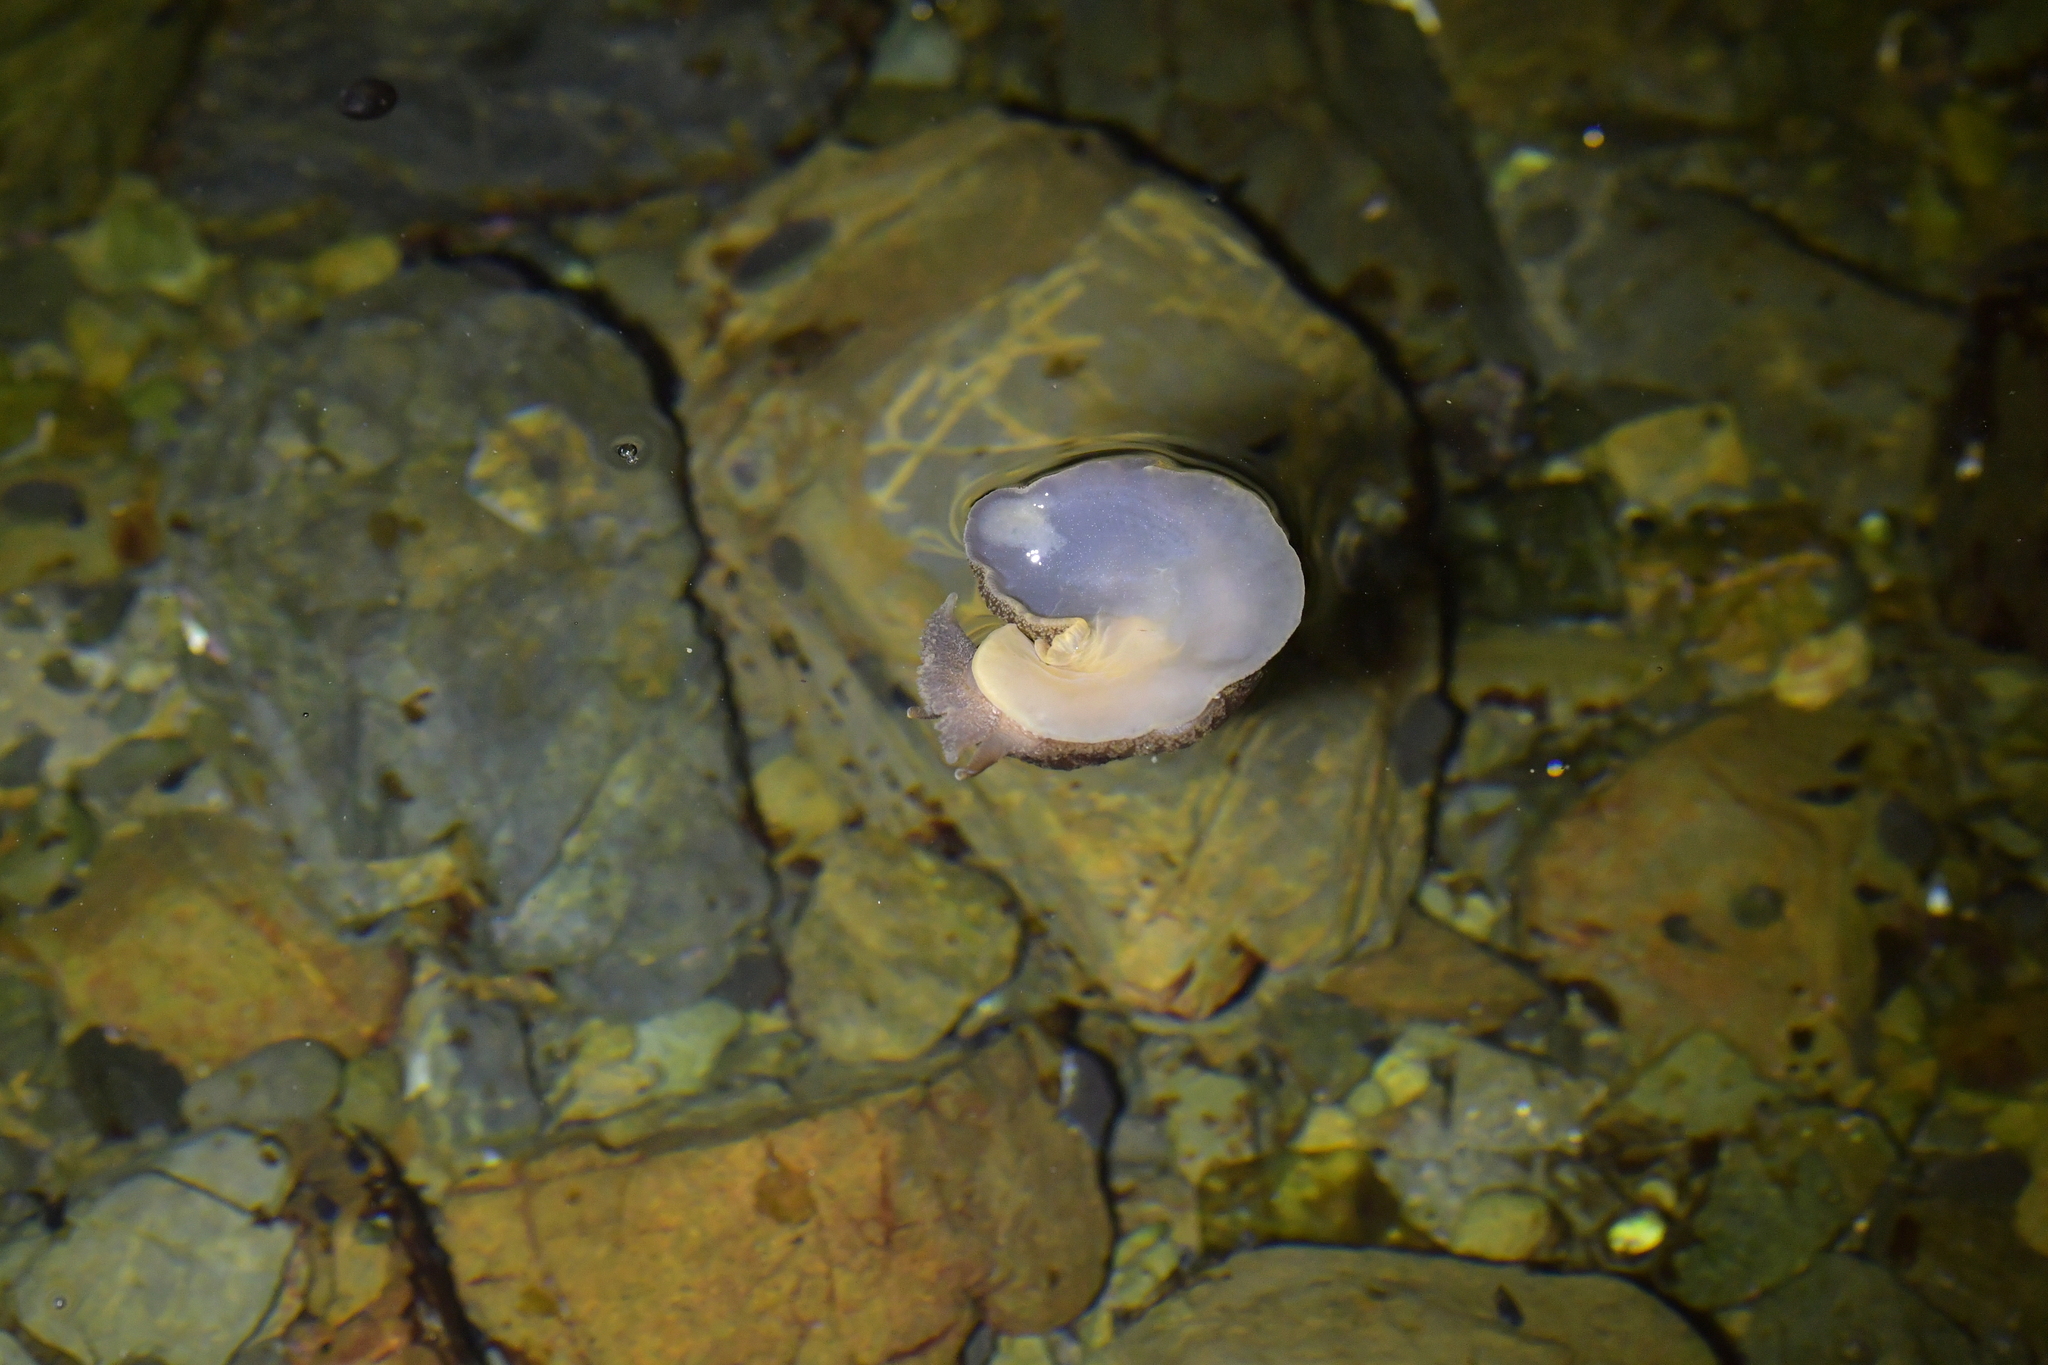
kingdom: Animalia
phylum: Mollusca
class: Gastropoda
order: Pleurobranchida
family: Pleurobranchaeidae
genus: Pleurobranchaea
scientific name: Pleurobranchaea maculata
